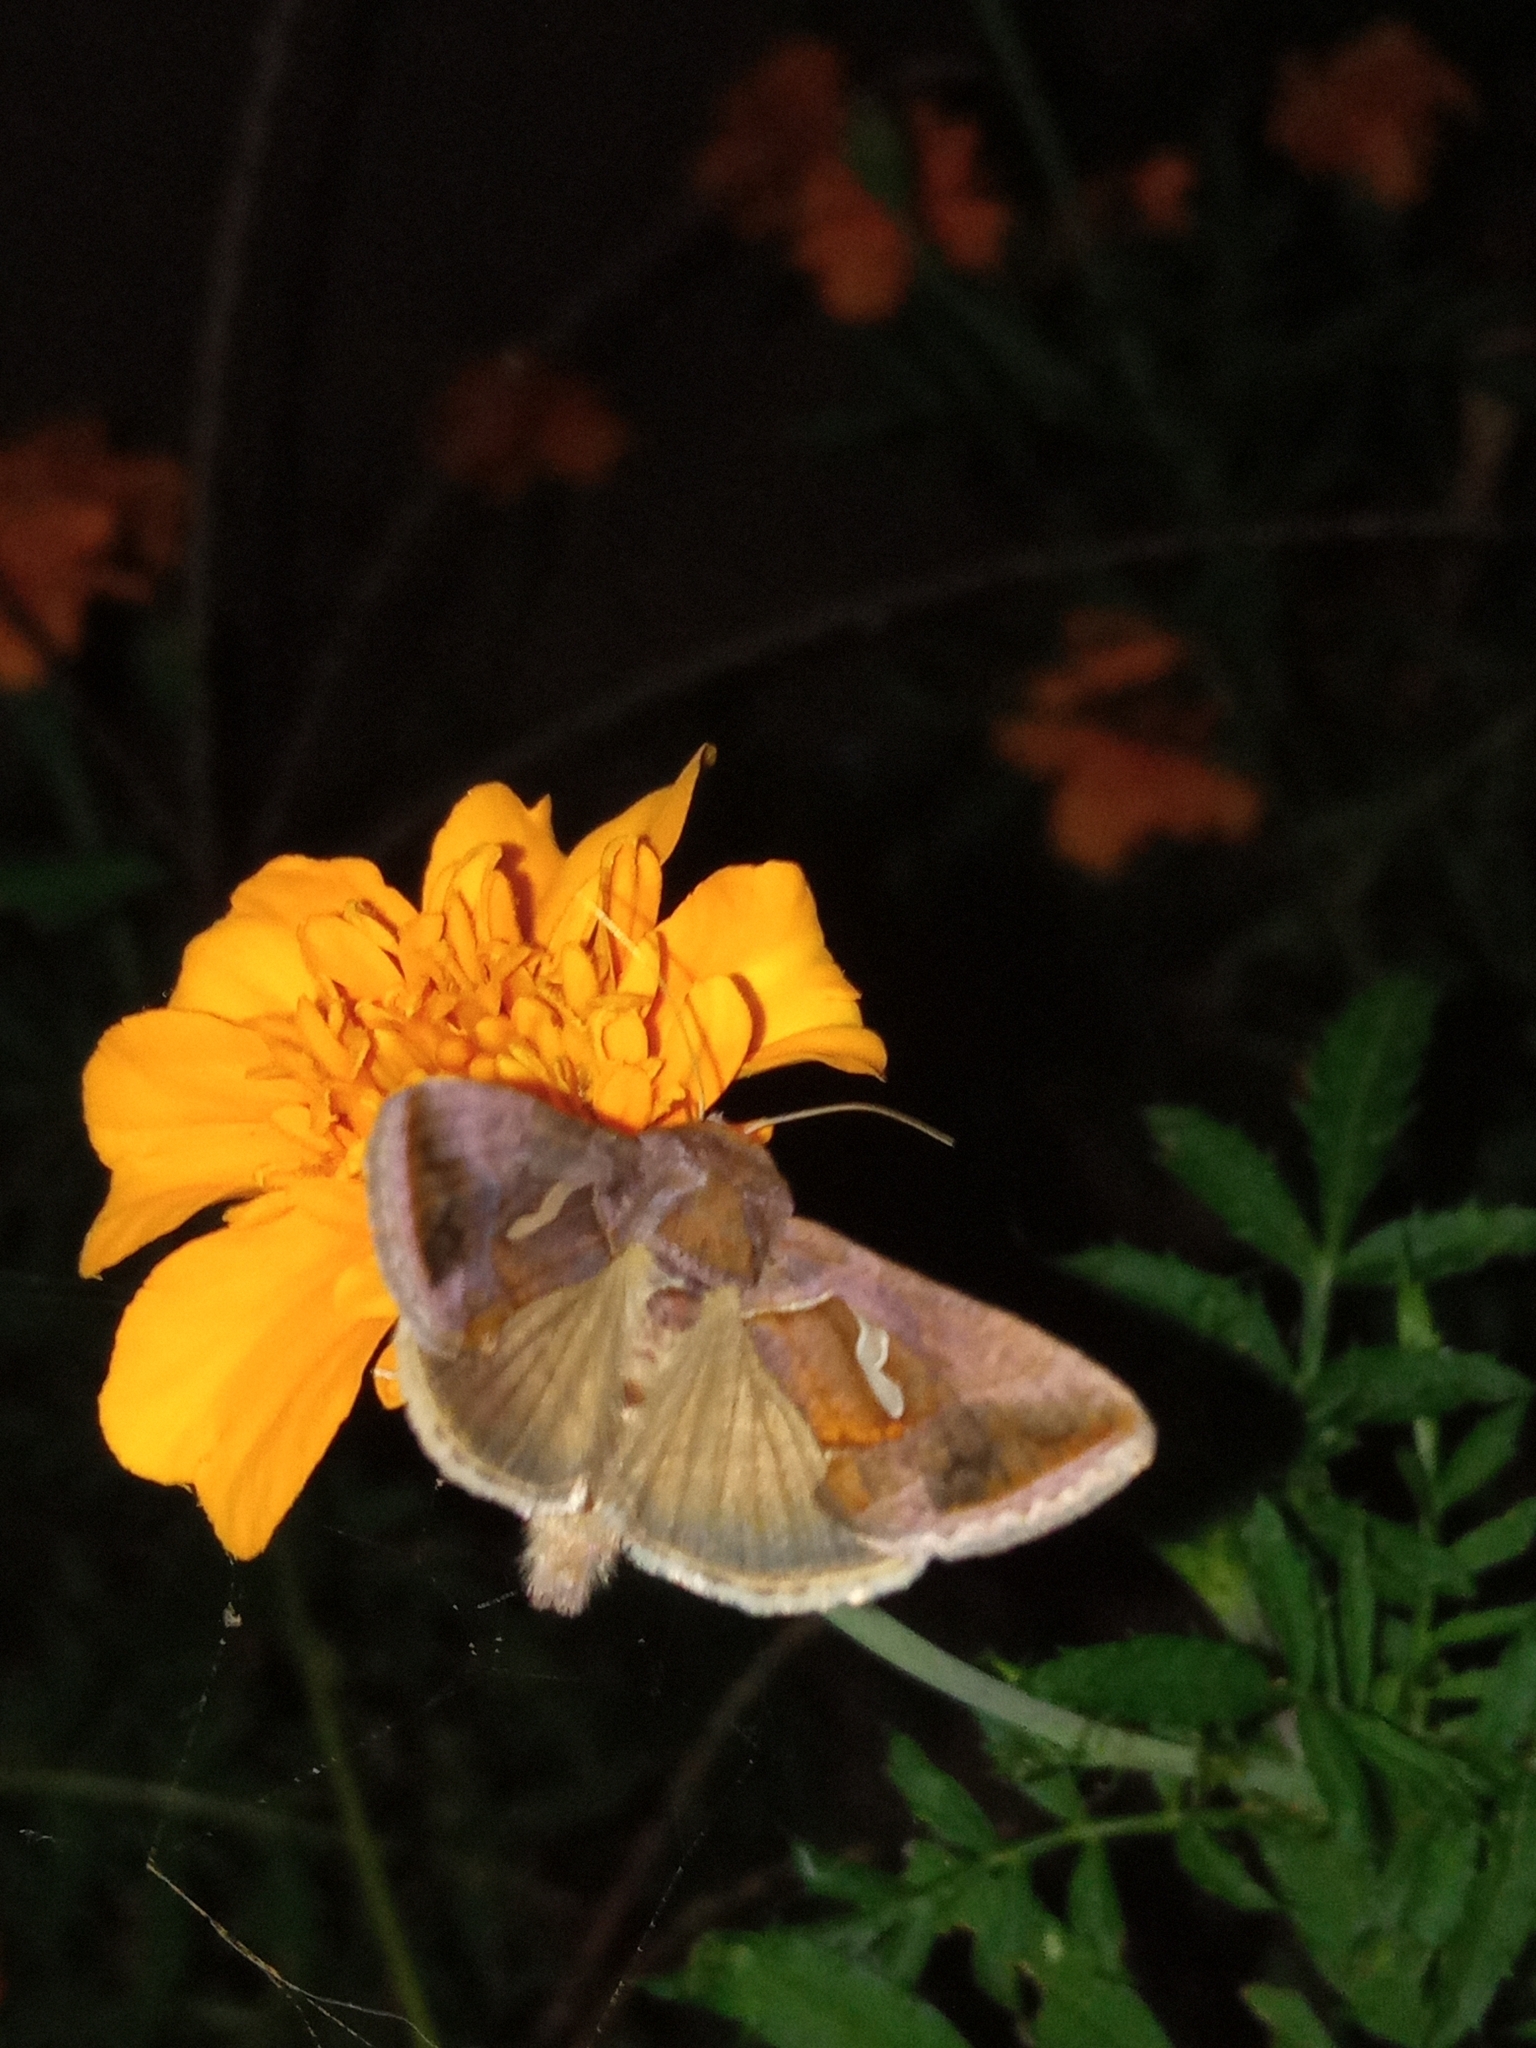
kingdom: Animalia
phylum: Arthropoda
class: Insecta
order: Lepidoptera
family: Noctuidae
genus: Macdunnoughia
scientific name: Macdunnoughia confusa
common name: Dewick's plusia
